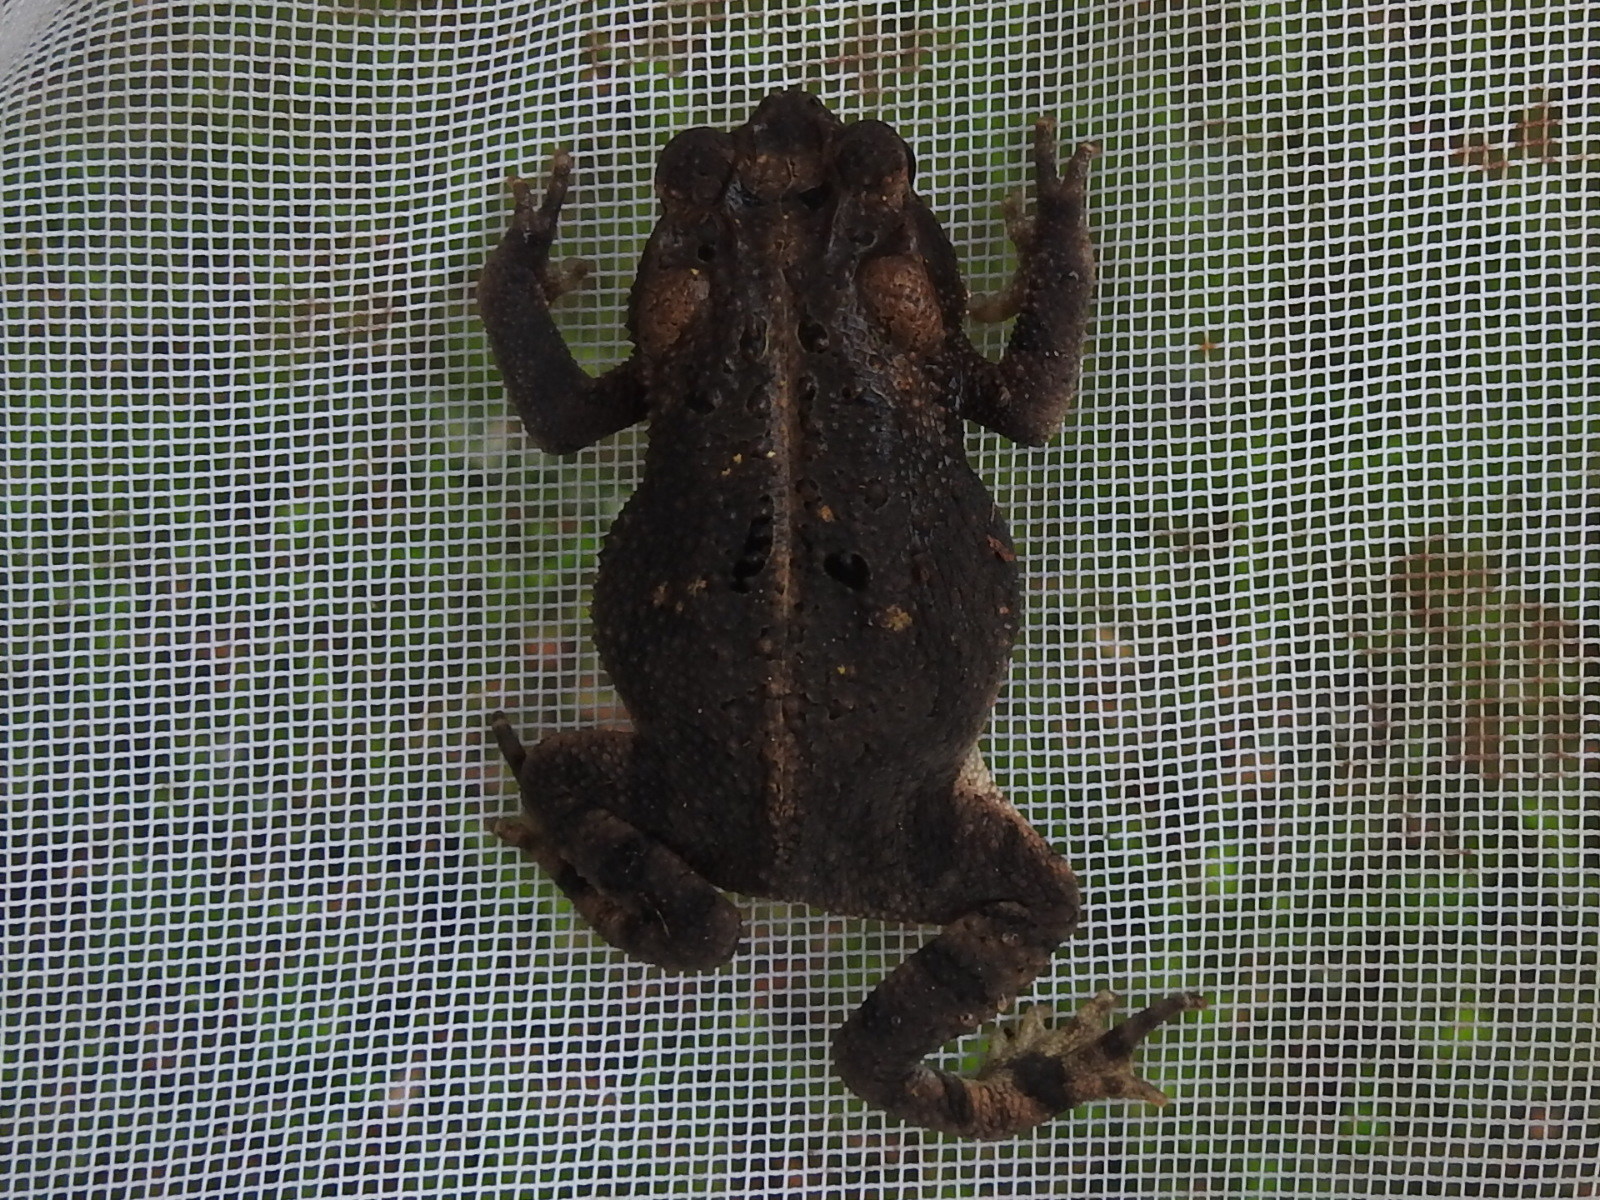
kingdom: Animalia
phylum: Chordata
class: Amphibia
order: Anura
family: Bufonidae
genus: Incilius
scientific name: Incilius nebulifer
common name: Gulf coast toad
